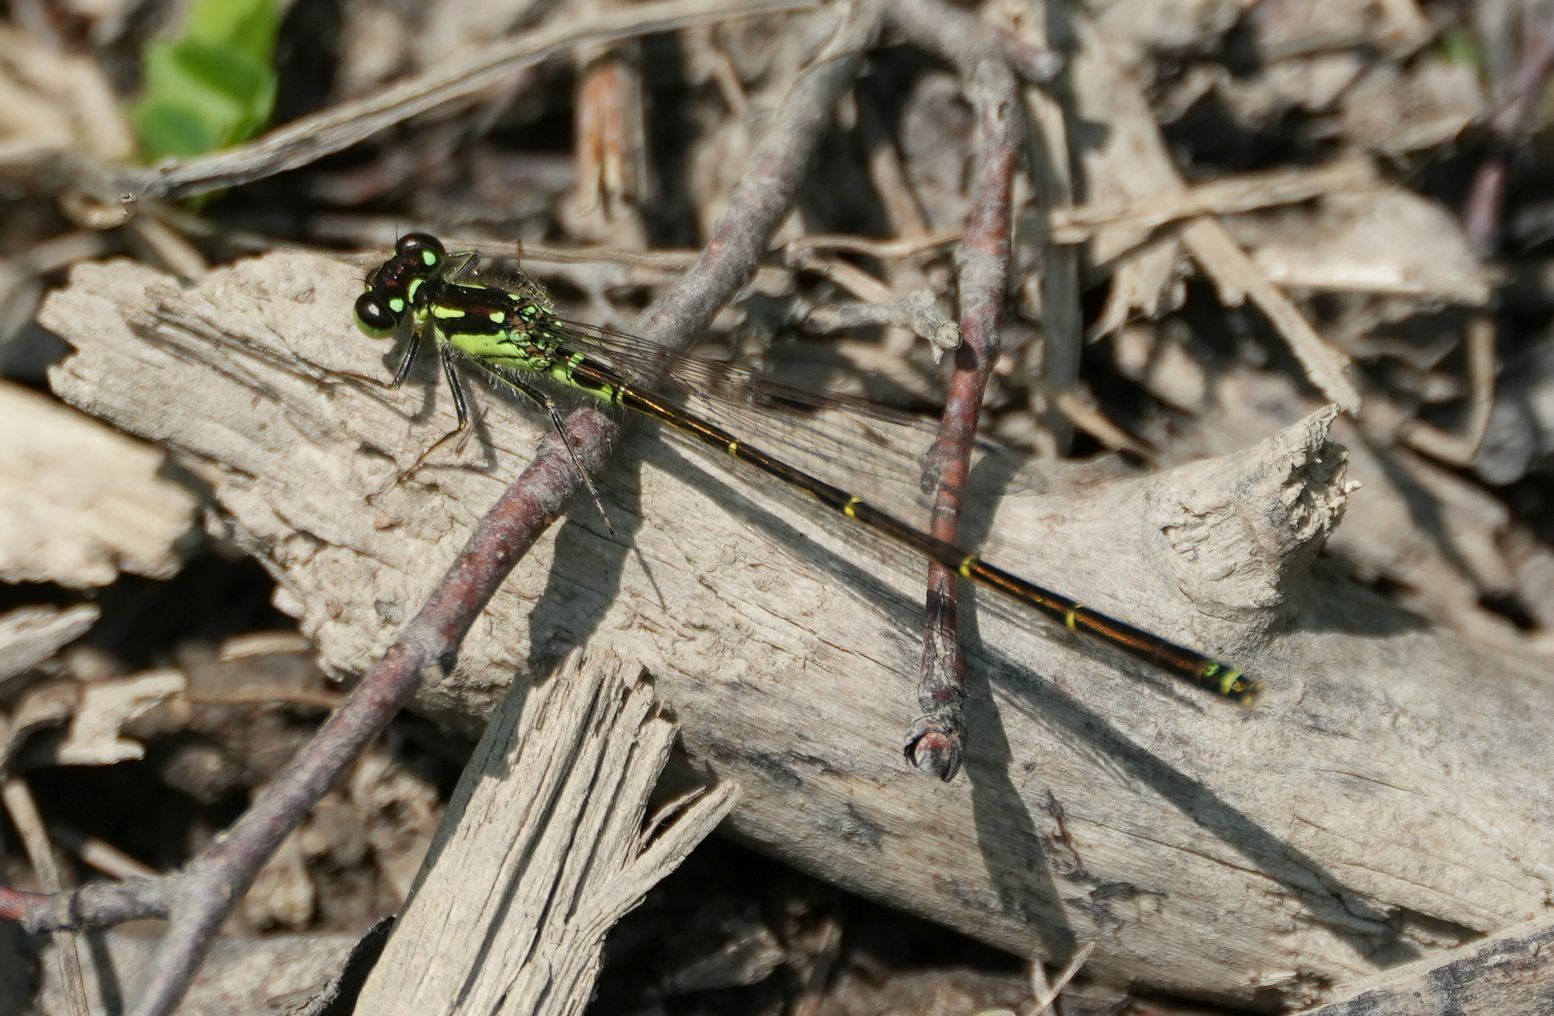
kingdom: Animalia
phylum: Arthropoda
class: Insecta
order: Odonata
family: Coenagrionidae
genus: Ischnura
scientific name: Ischnura posita
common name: Fragile forktail
